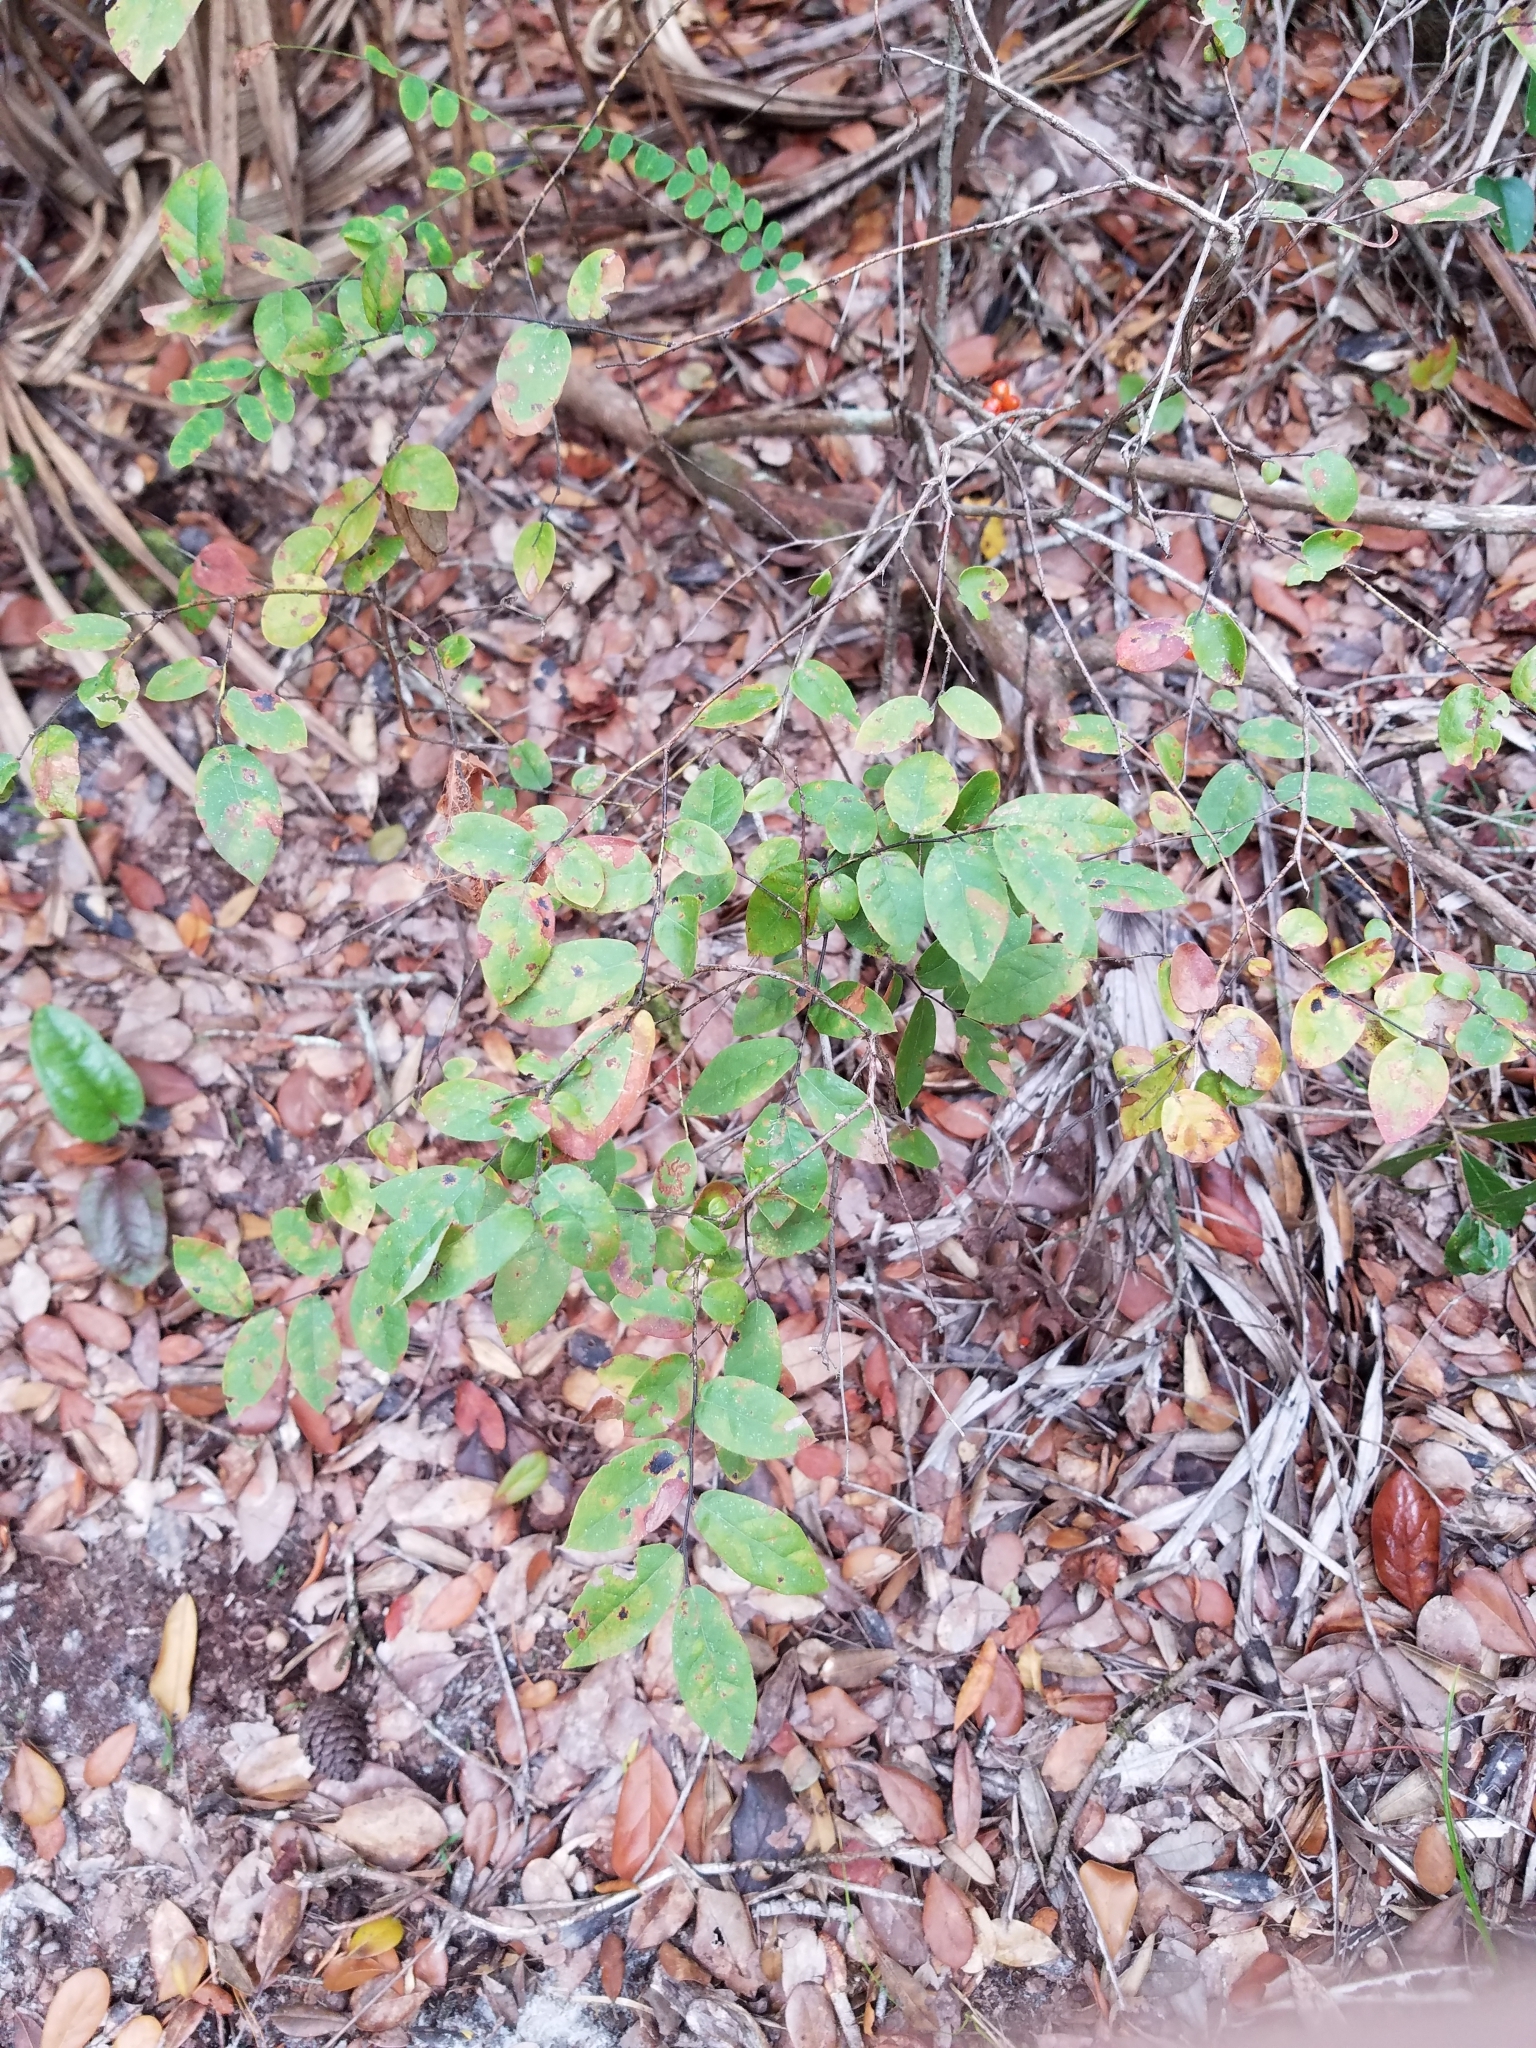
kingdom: Plantae
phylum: Tracheophyta
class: Liliopsida
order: Liliales
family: Smilacaceae
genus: Smilax
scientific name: Smilax pumila
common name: Sarsaparilla-vine
